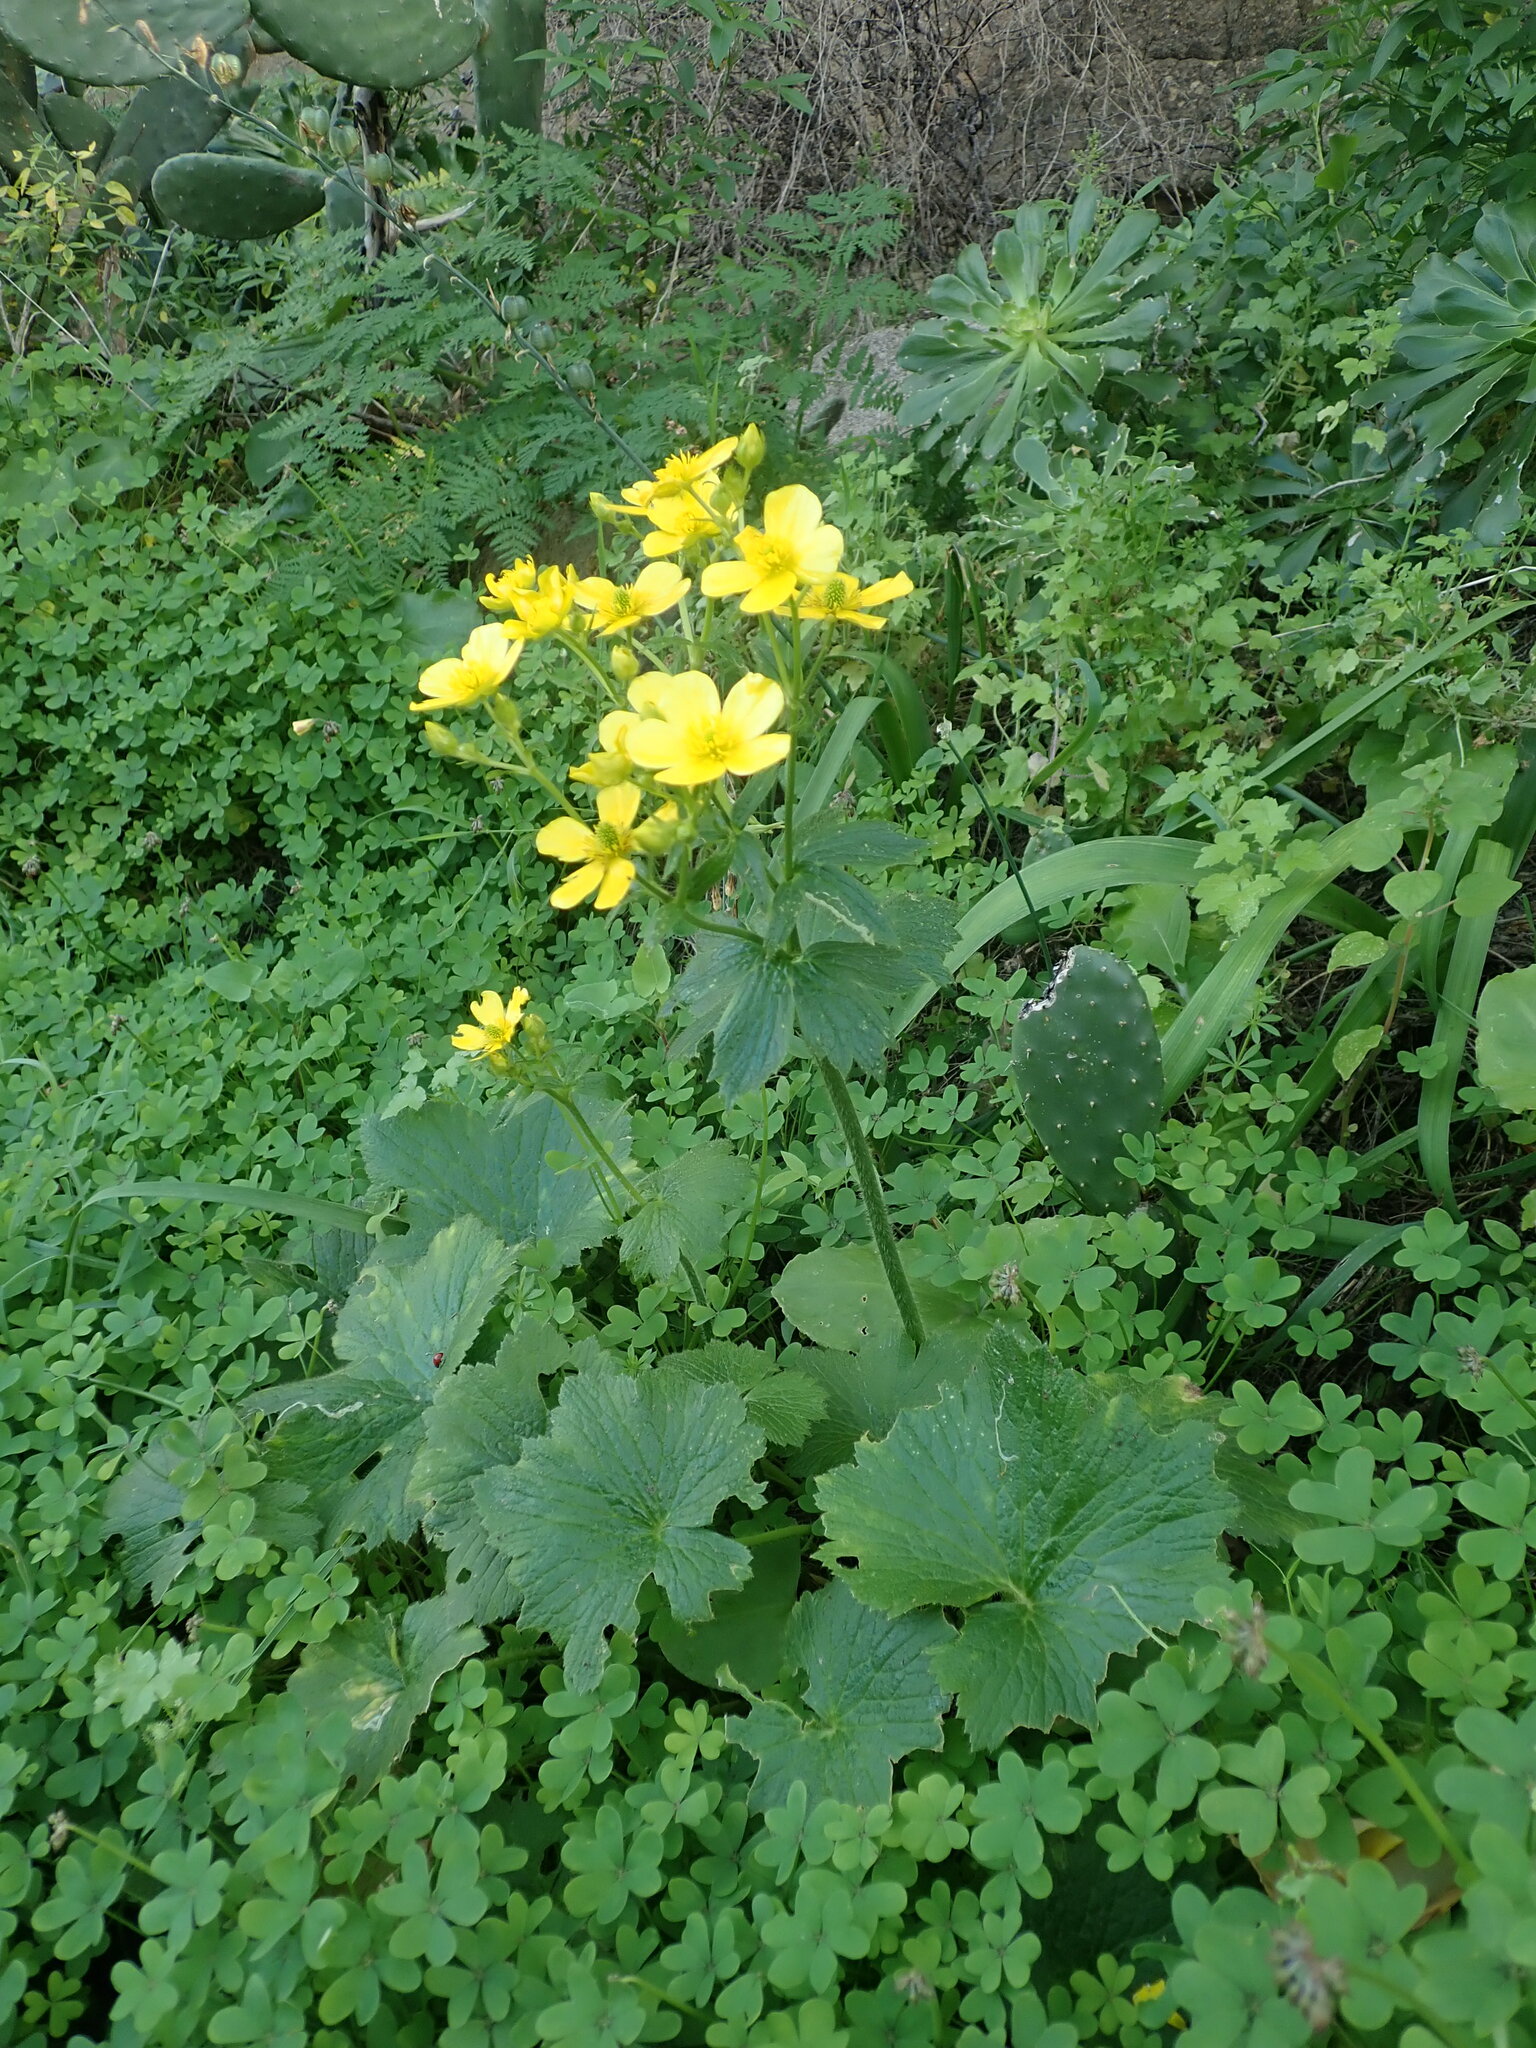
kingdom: Plantae
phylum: Tracheophyta
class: Magnoliopsida
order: Ranunculales
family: Ranunculaceae
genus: Ranunculus
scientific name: Ranunculus cortusifolius
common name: Azores buttercup
